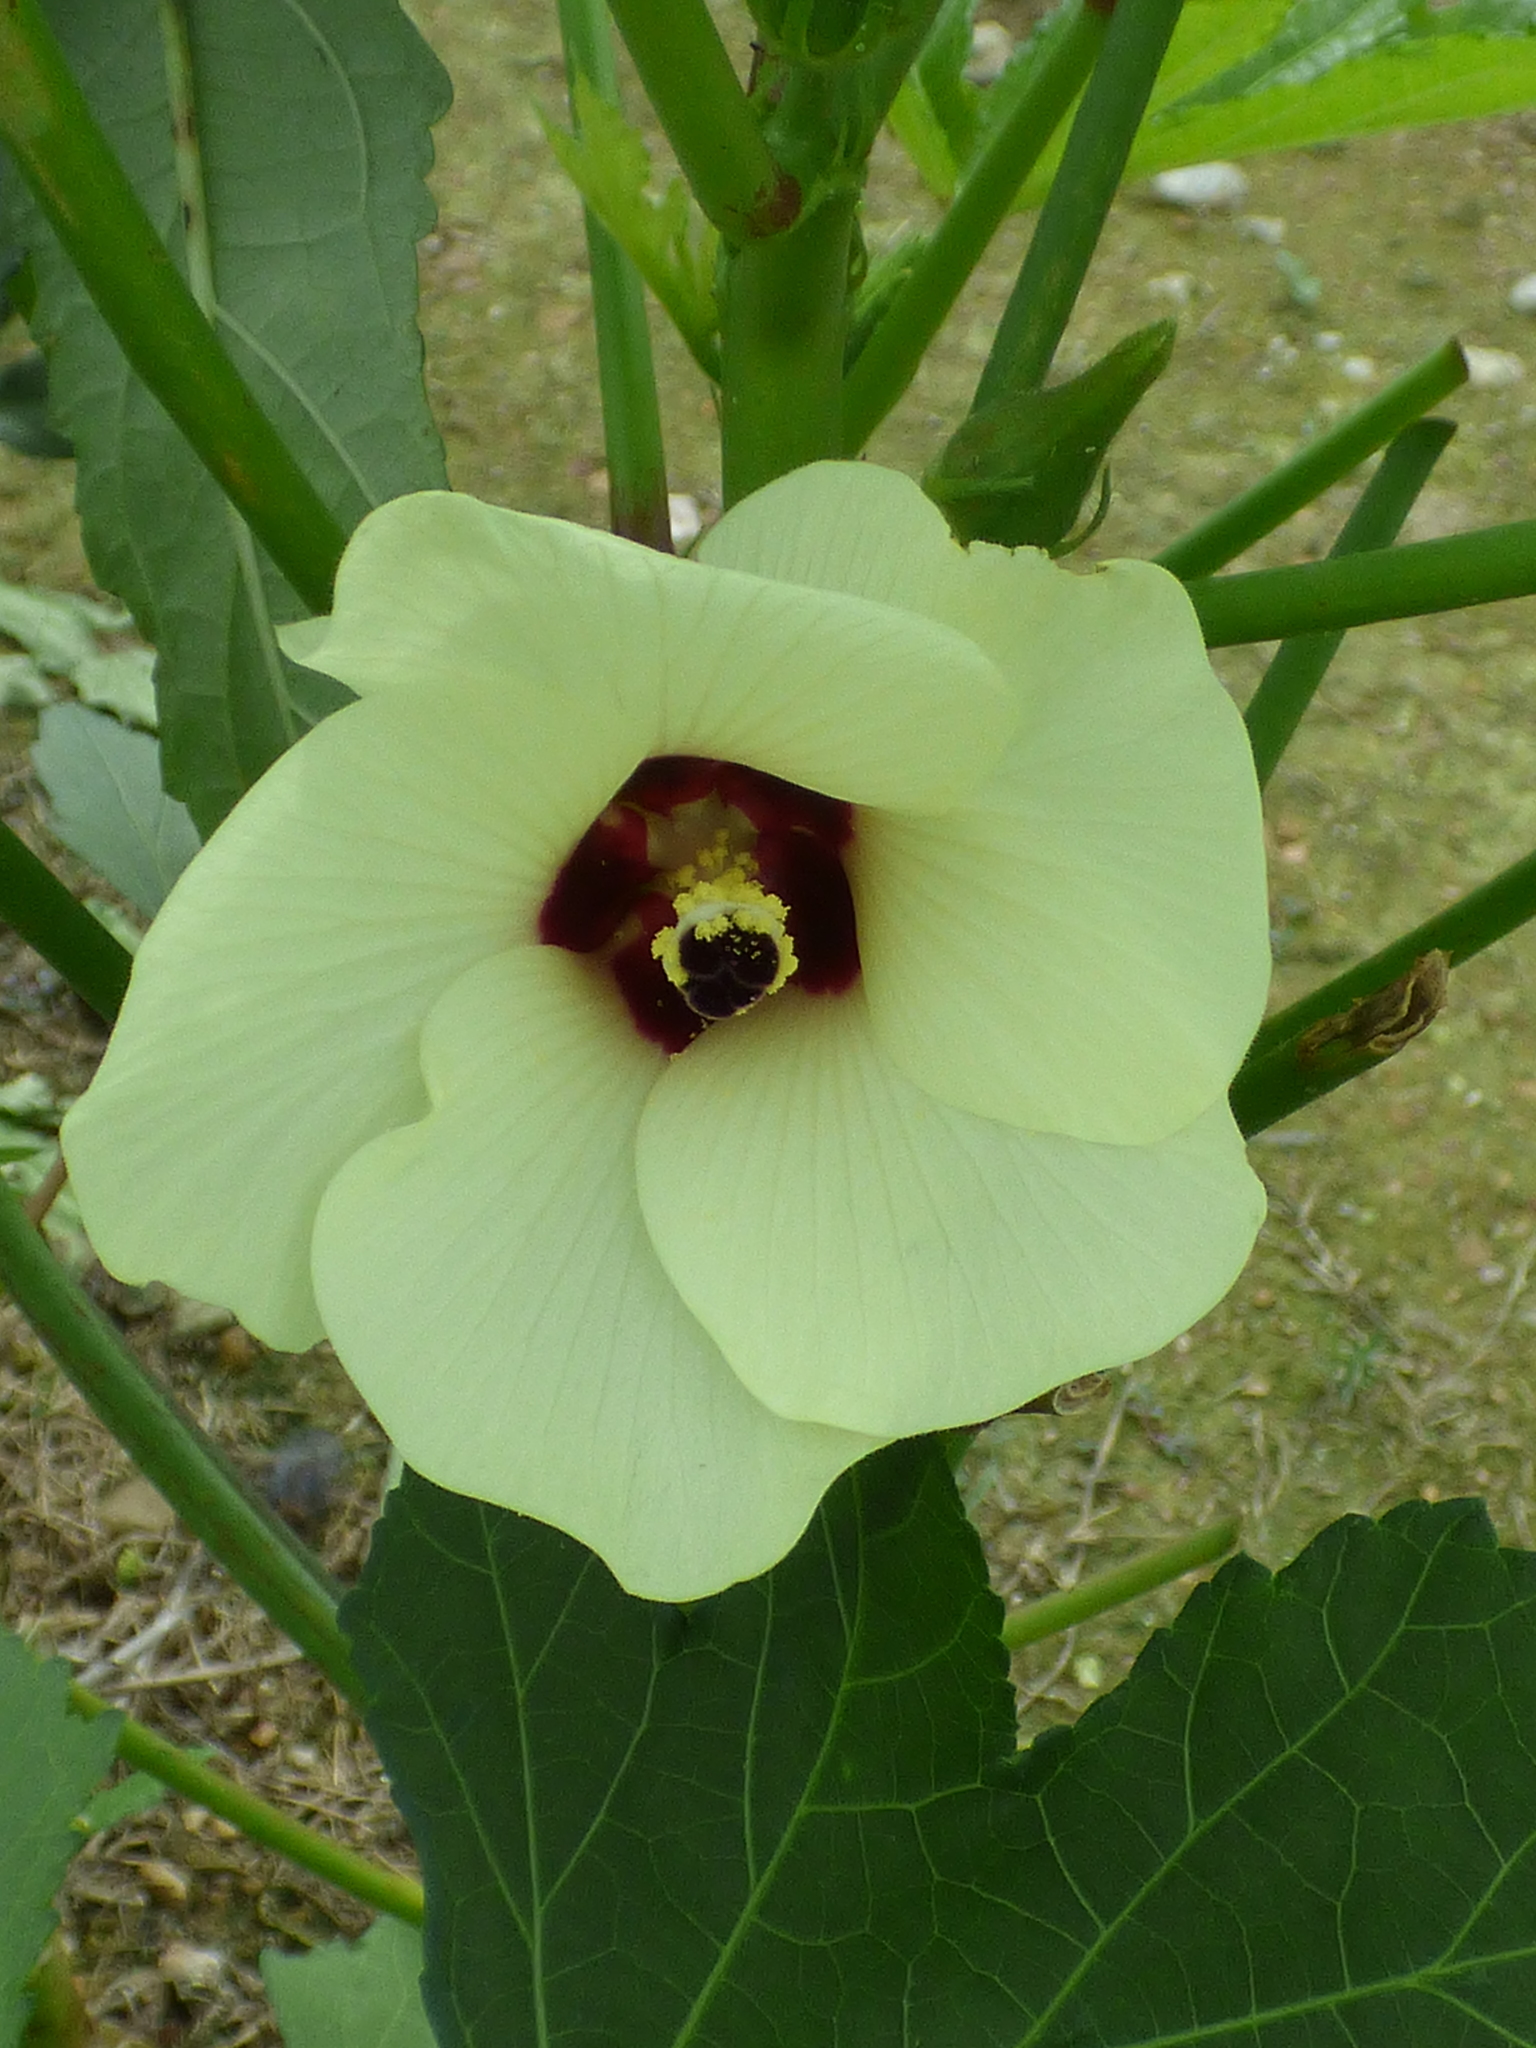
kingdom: Plantae
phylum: Tracheophyta
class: Magnoliopsida
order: Malvales
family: Malvaceae
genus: Abelmoschus
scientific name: Abelmoschus esculentus
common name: Okra
